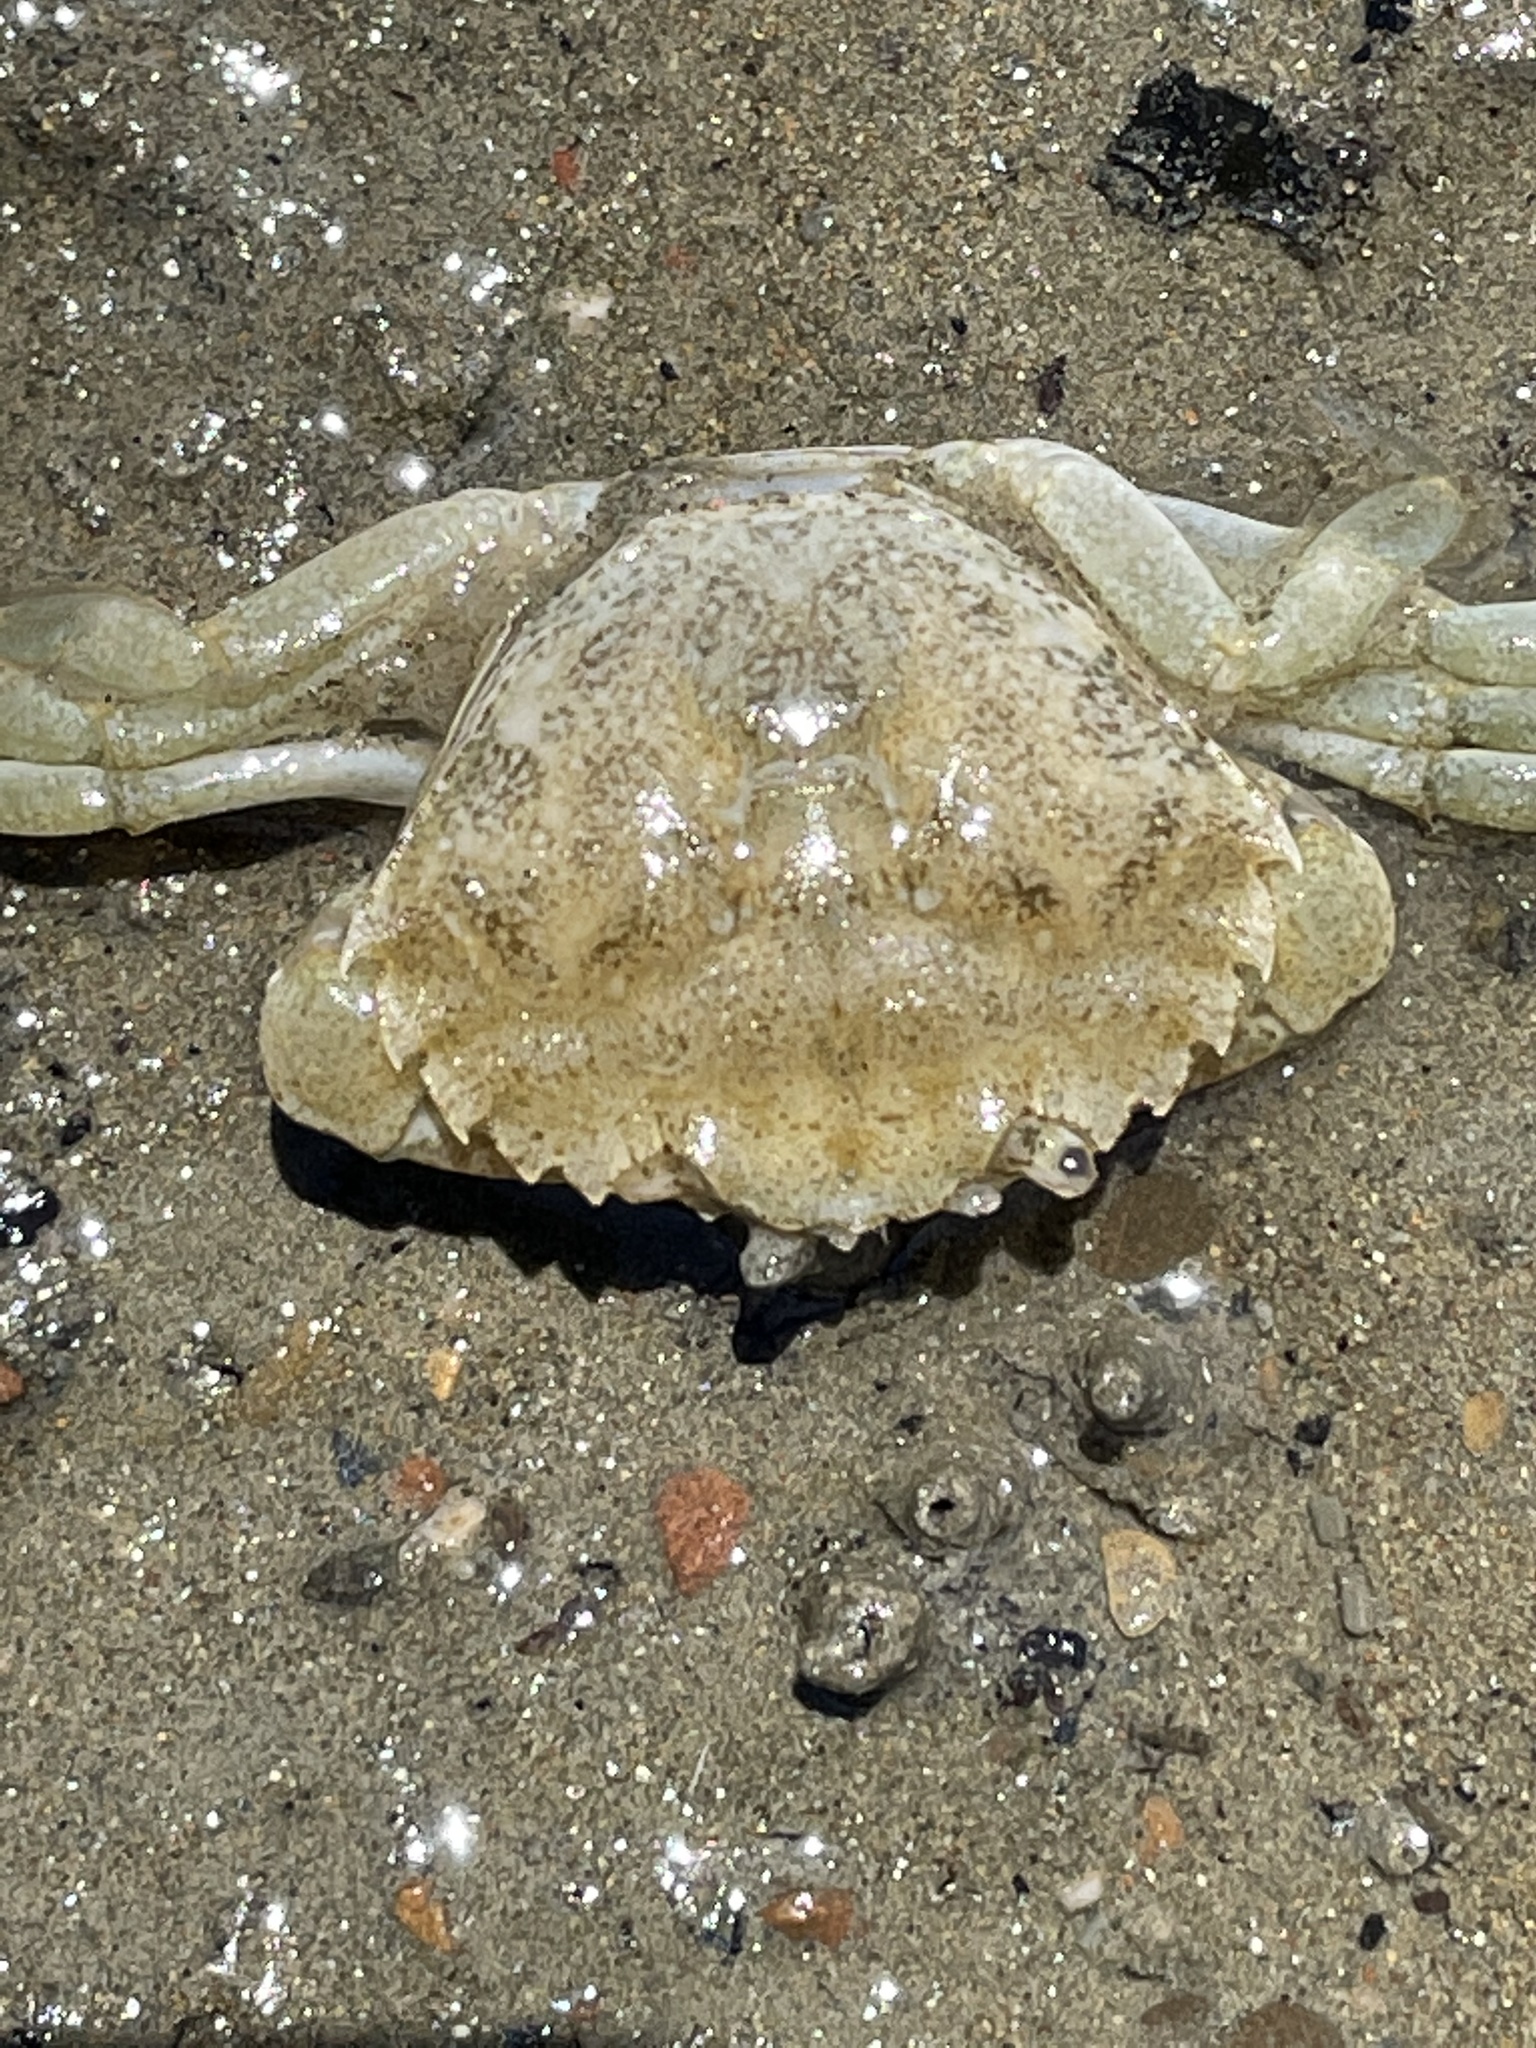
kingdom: Animalia
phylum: Arthropoda
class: Malacostraca
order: Decapoda
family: Carcinidae
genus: Carcinus
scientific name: Carcinus maenas
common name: European green crab
